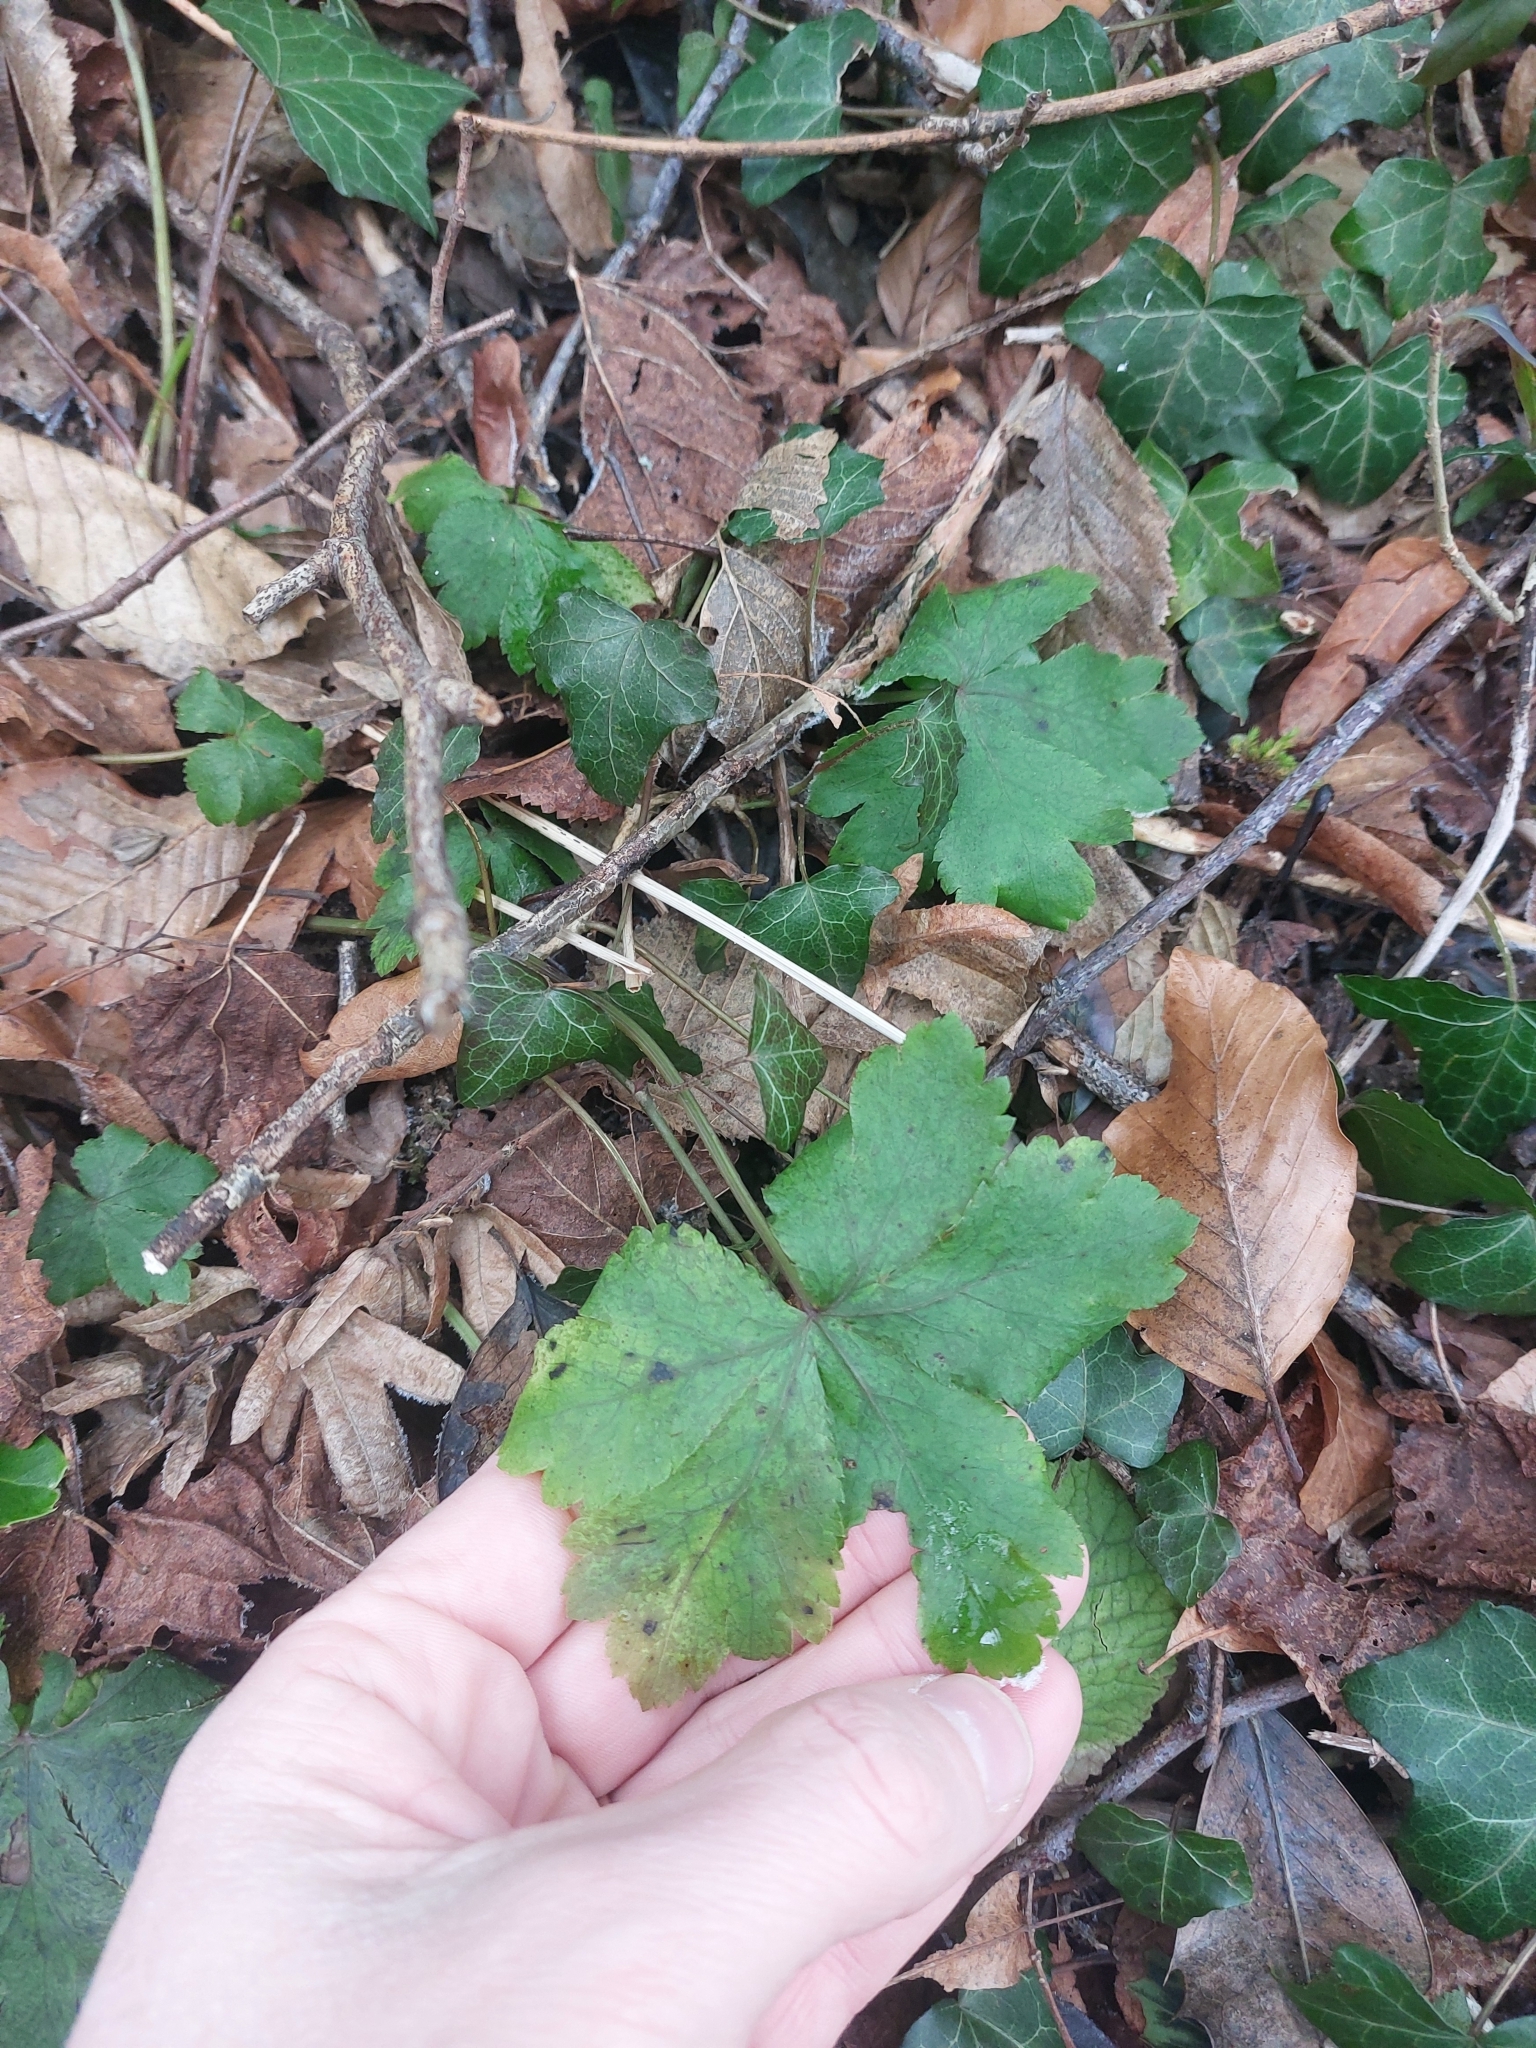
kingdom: Plantae
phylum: Tracheophyta
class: Magnoliopsida
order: Apiales
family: Apiaceae
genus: Sanicula
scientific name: Sanicula europaea
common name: Sanicle
